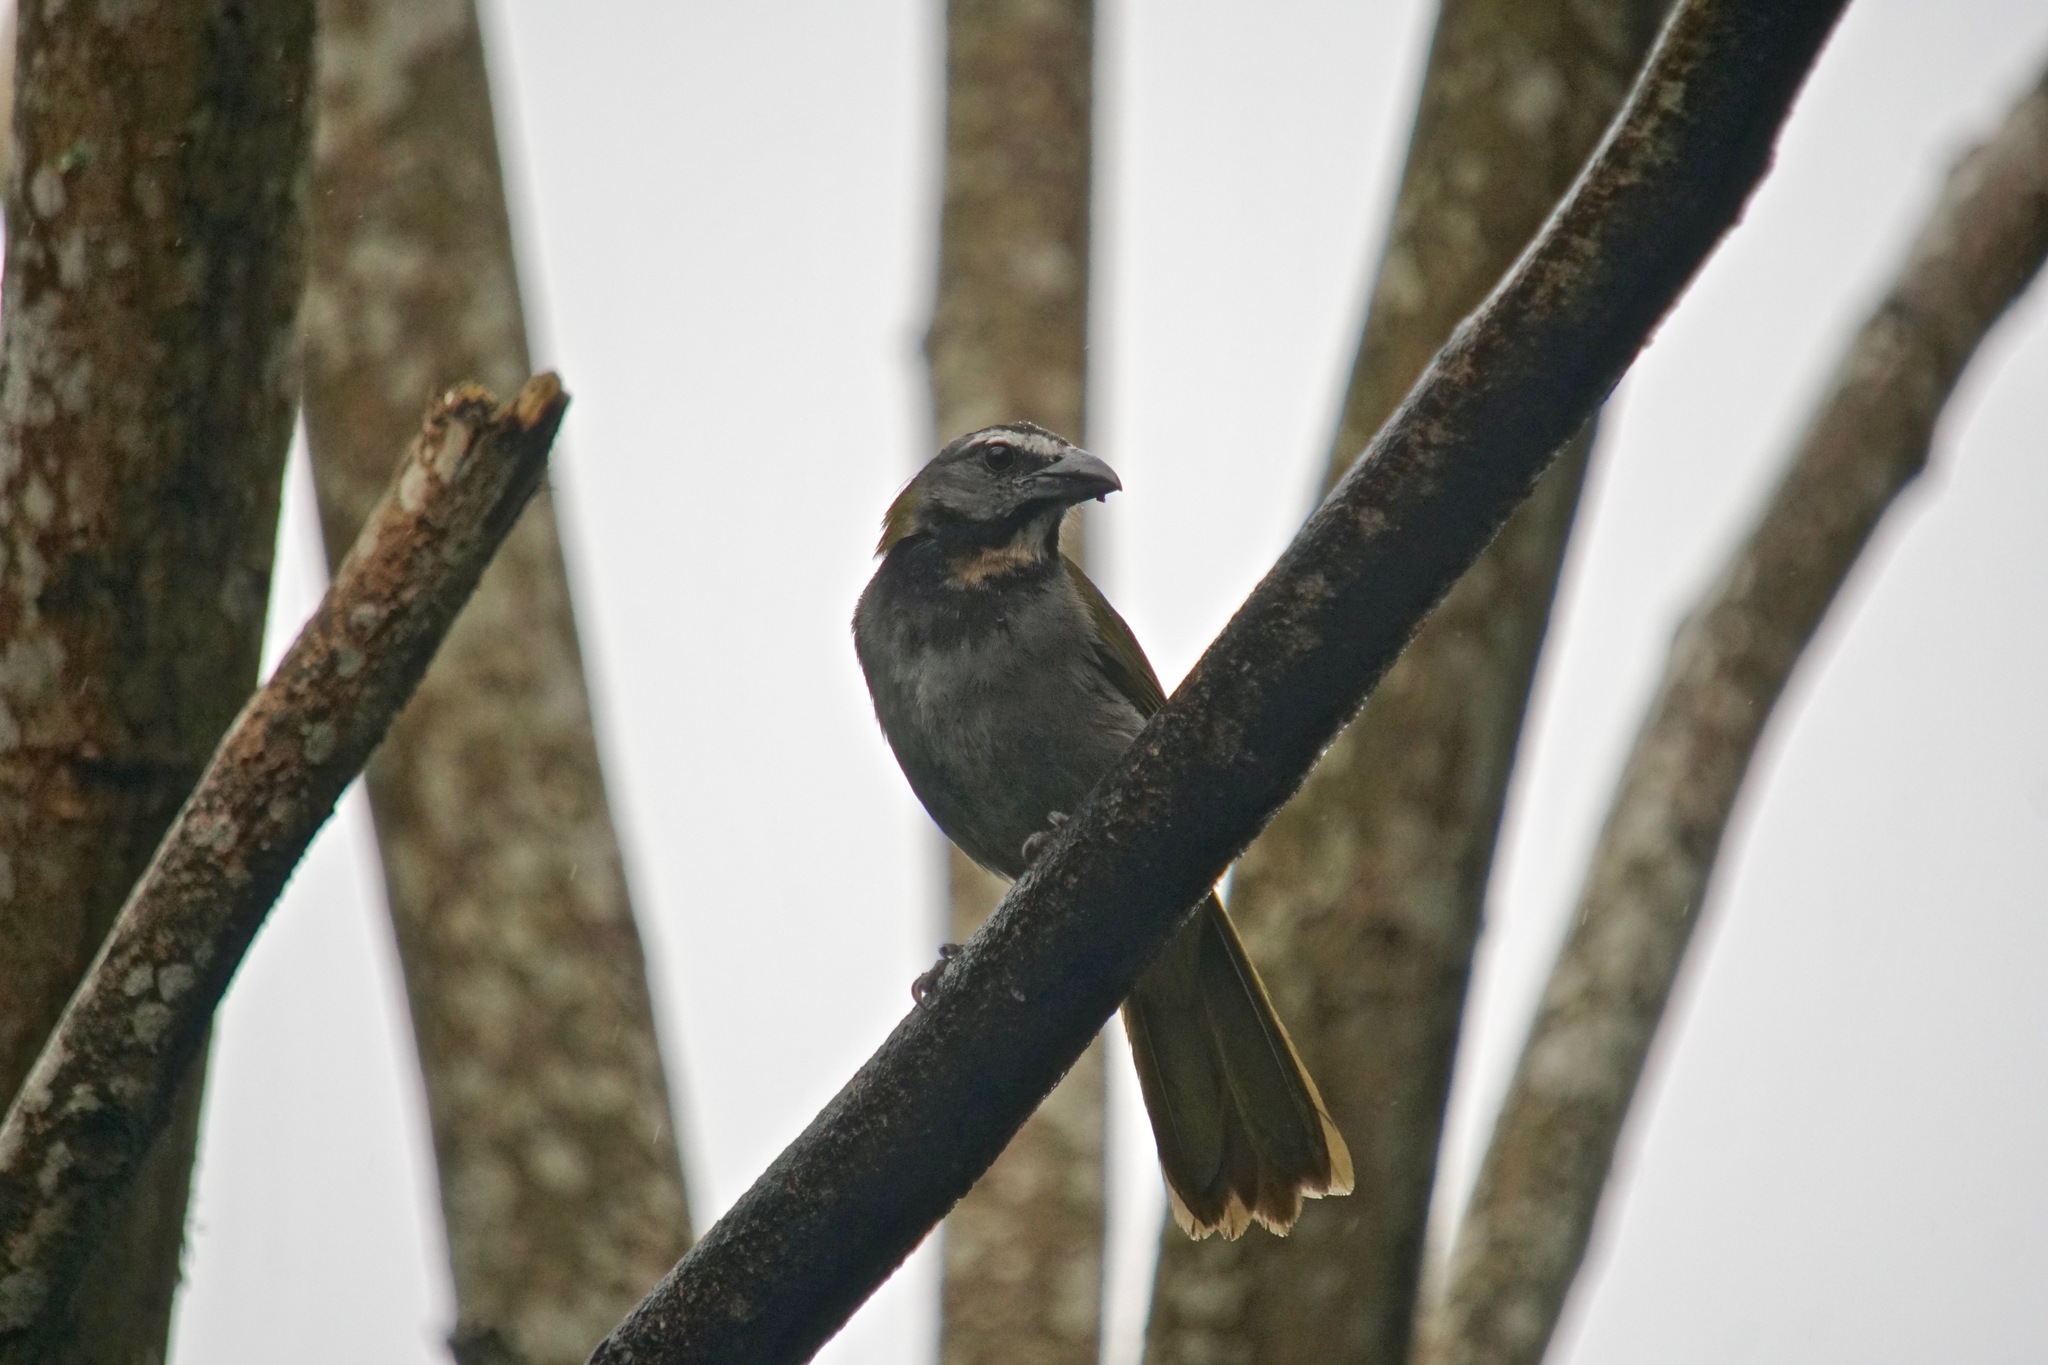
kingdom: Animalia
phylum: Chordata
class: Aves
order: Passeriformes
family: Thraupidae
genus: Saltator
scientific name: Saltator maximus
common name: Buff-throated saltator
